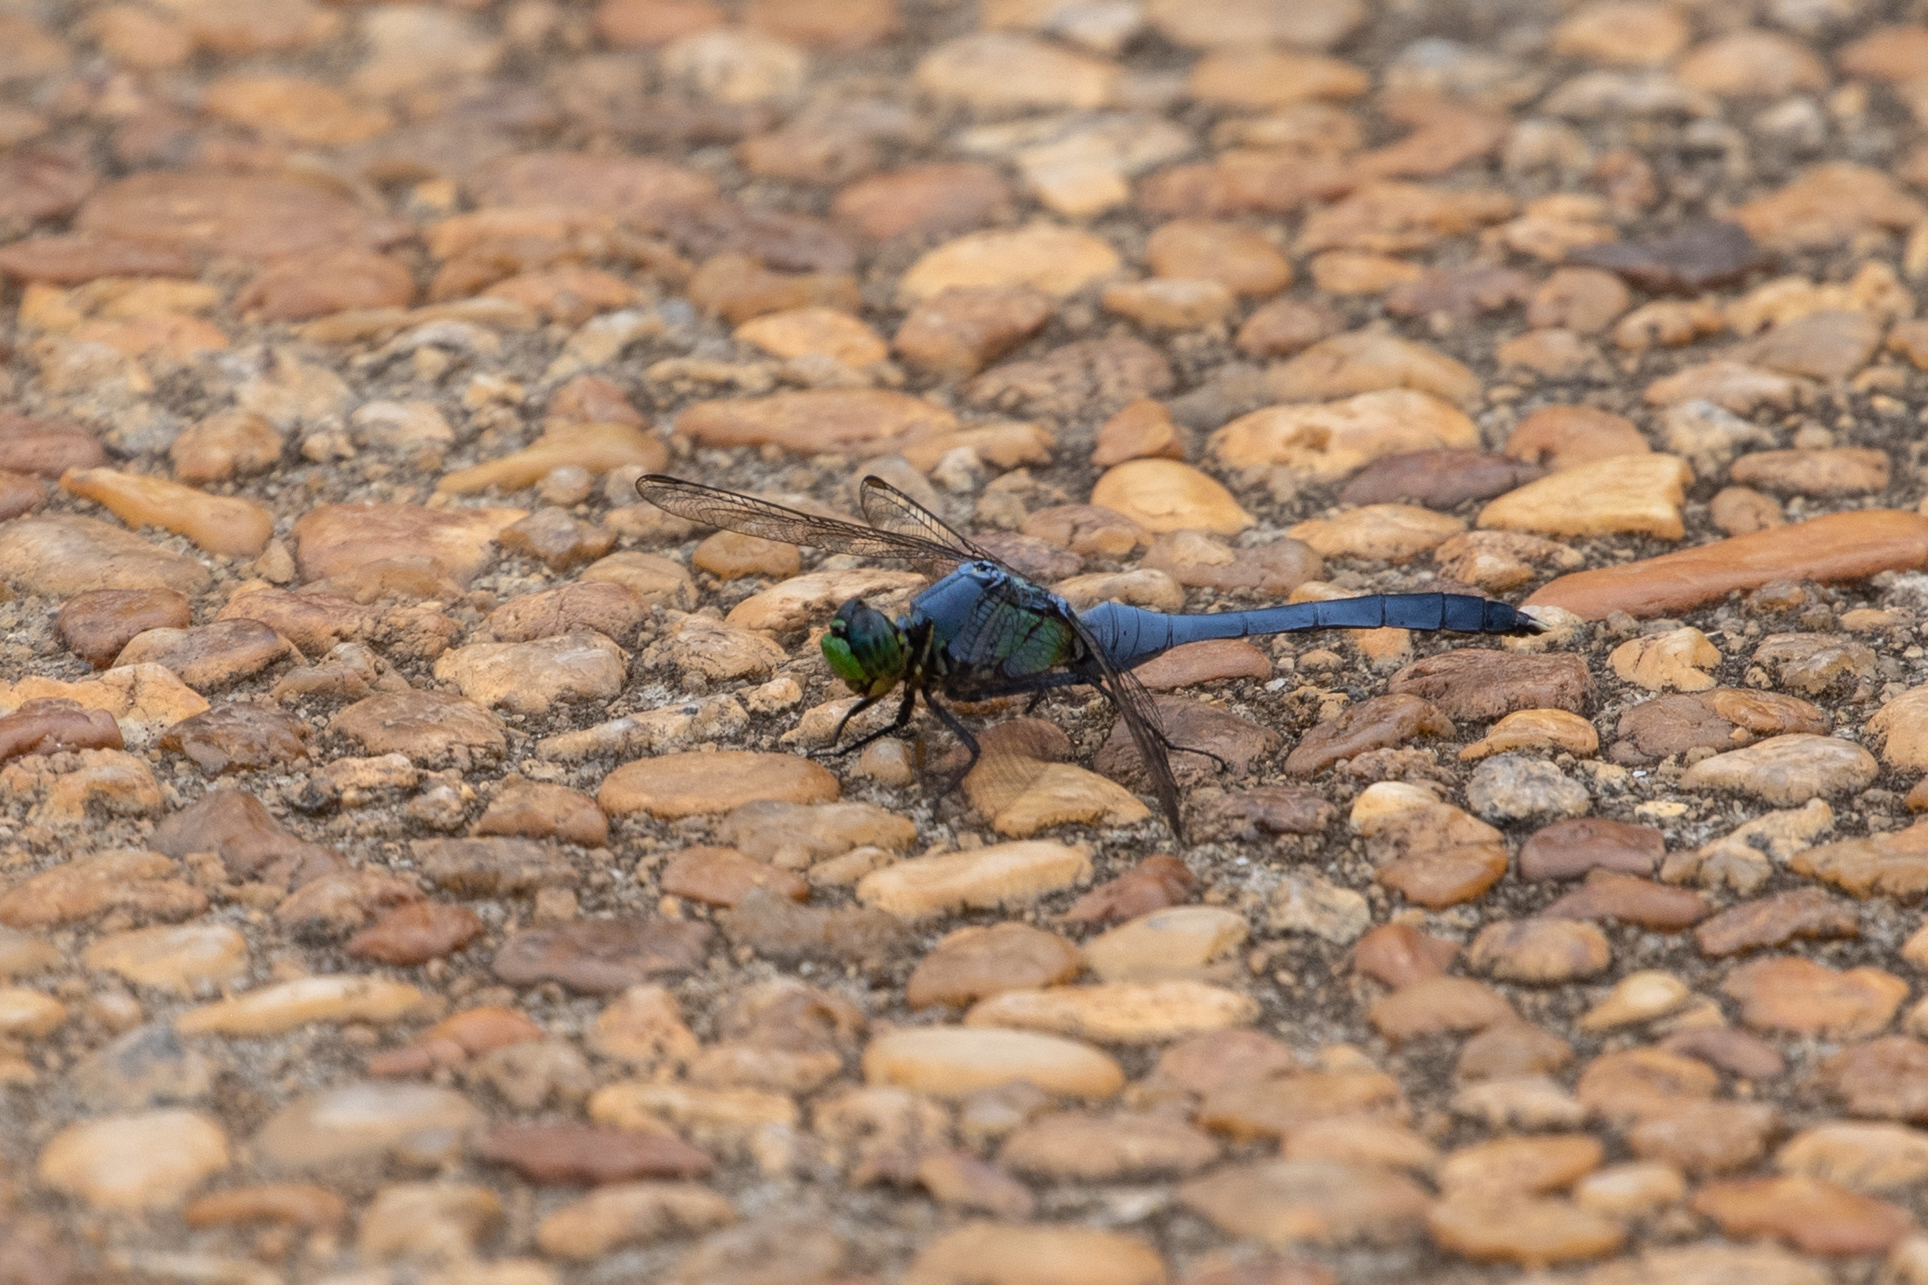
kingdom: Animalia
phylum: Arthropoda
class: Insecta
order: Odonata
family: Libellulidae
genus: Erythemis
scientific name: Erythemis simplicicollis
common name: Eastern pondhawk
